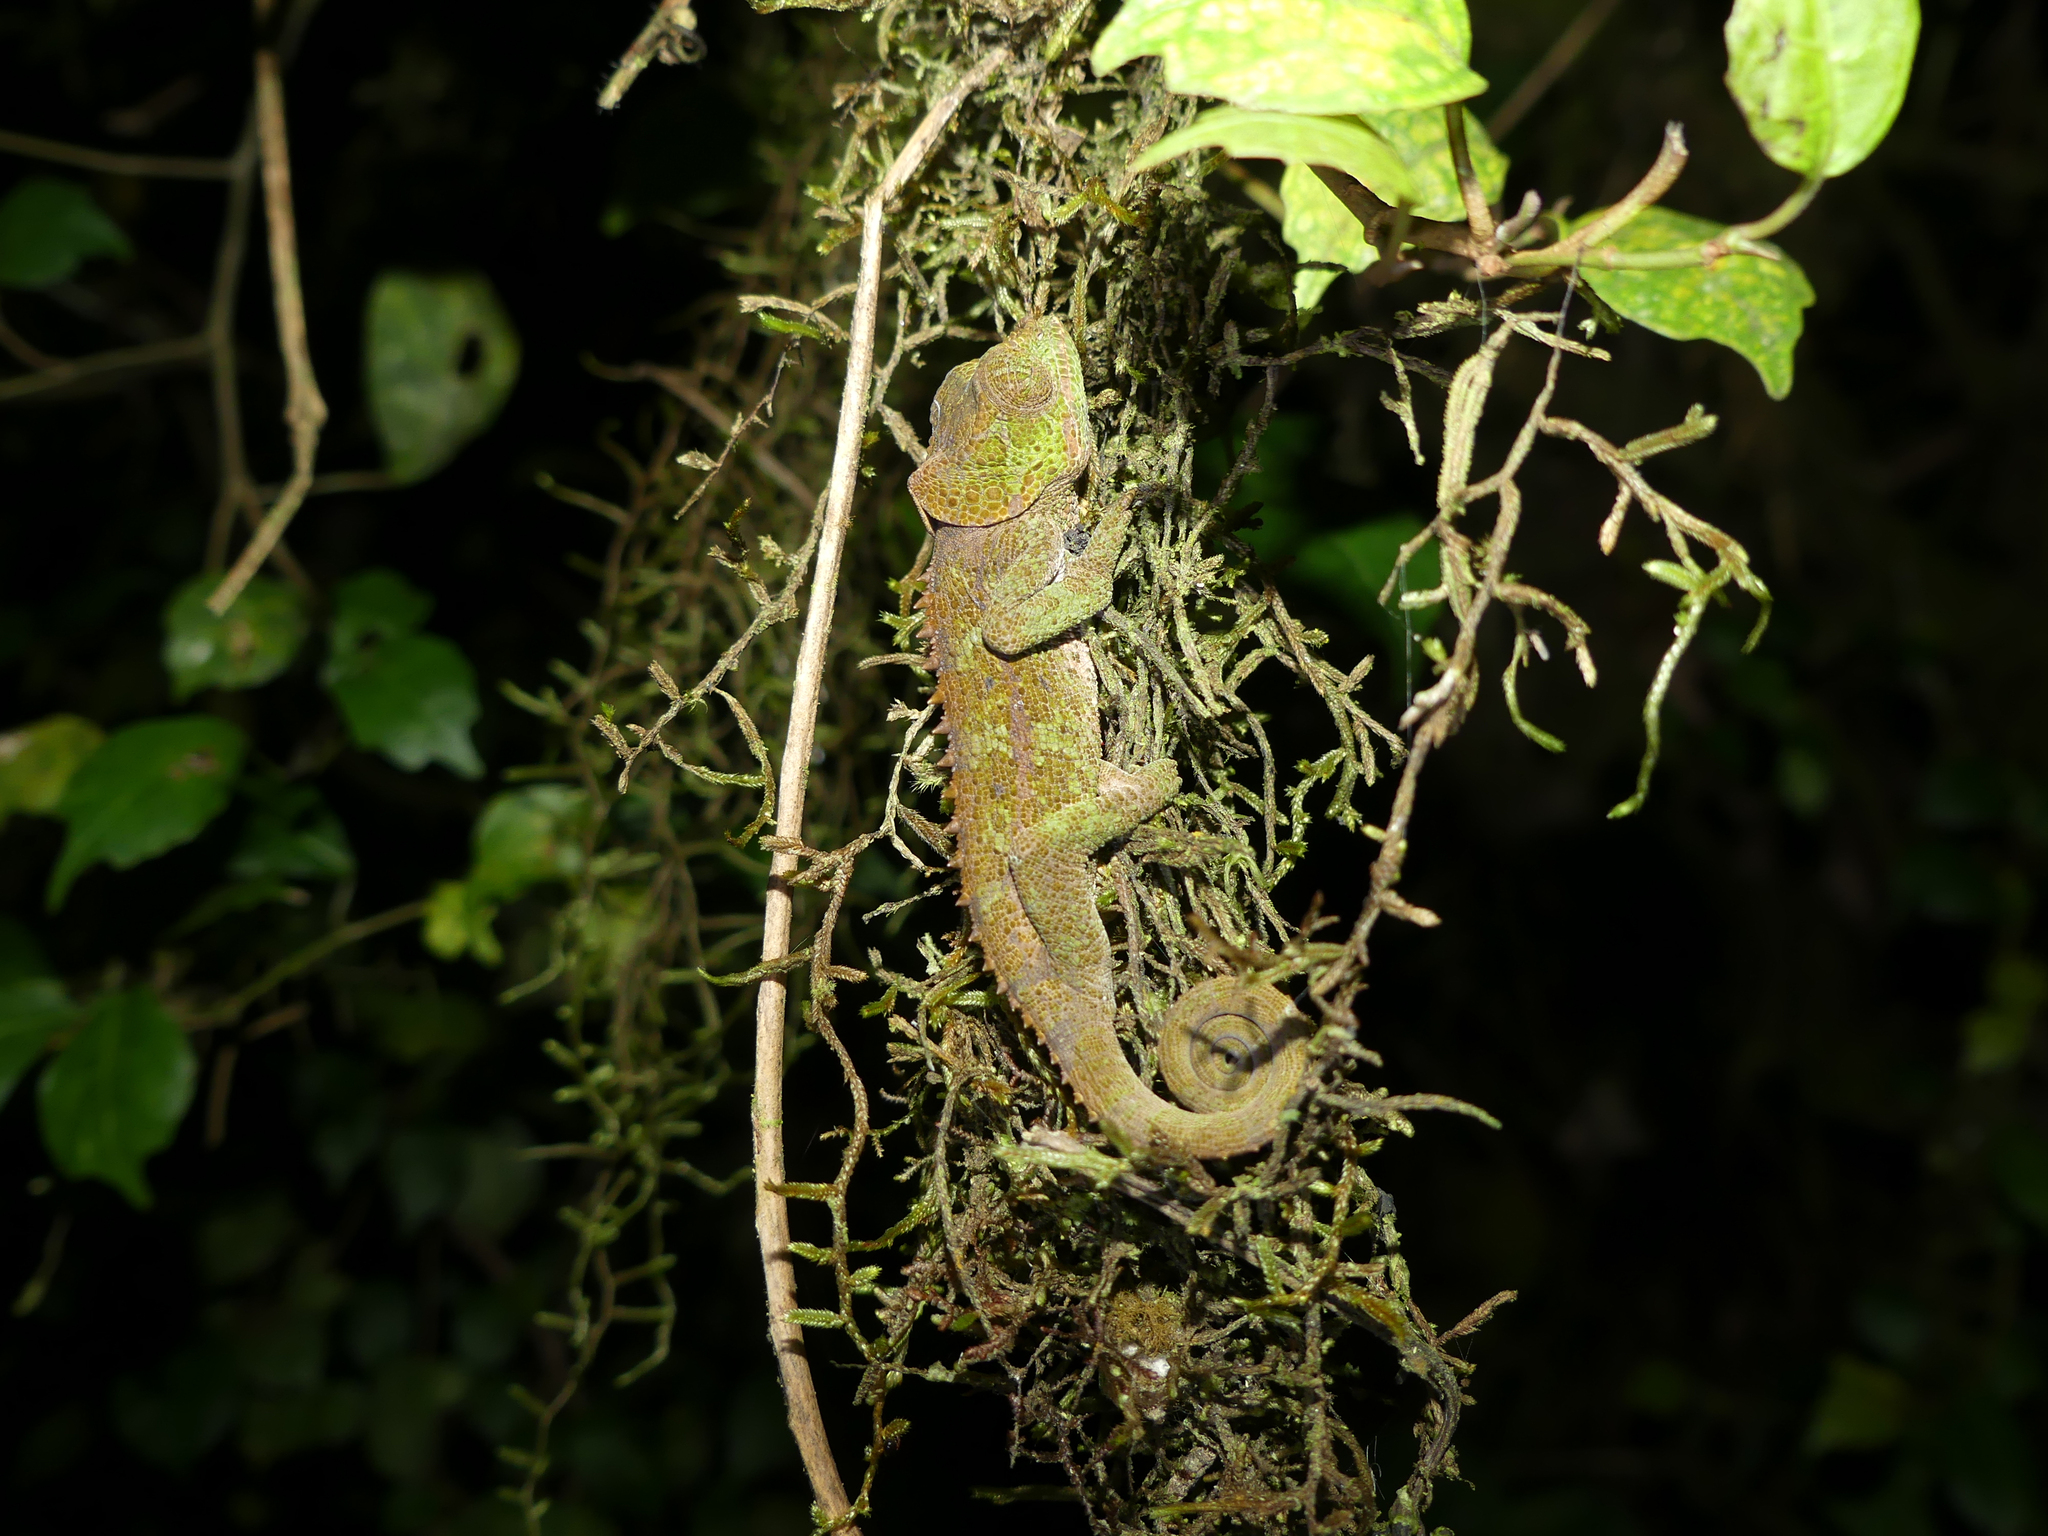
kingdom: Animalia
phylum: Chordata
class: Squamata
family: Chamaeleonidae
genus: Calumma
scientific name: Calumma crypticum
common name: Cryptic chameleon
